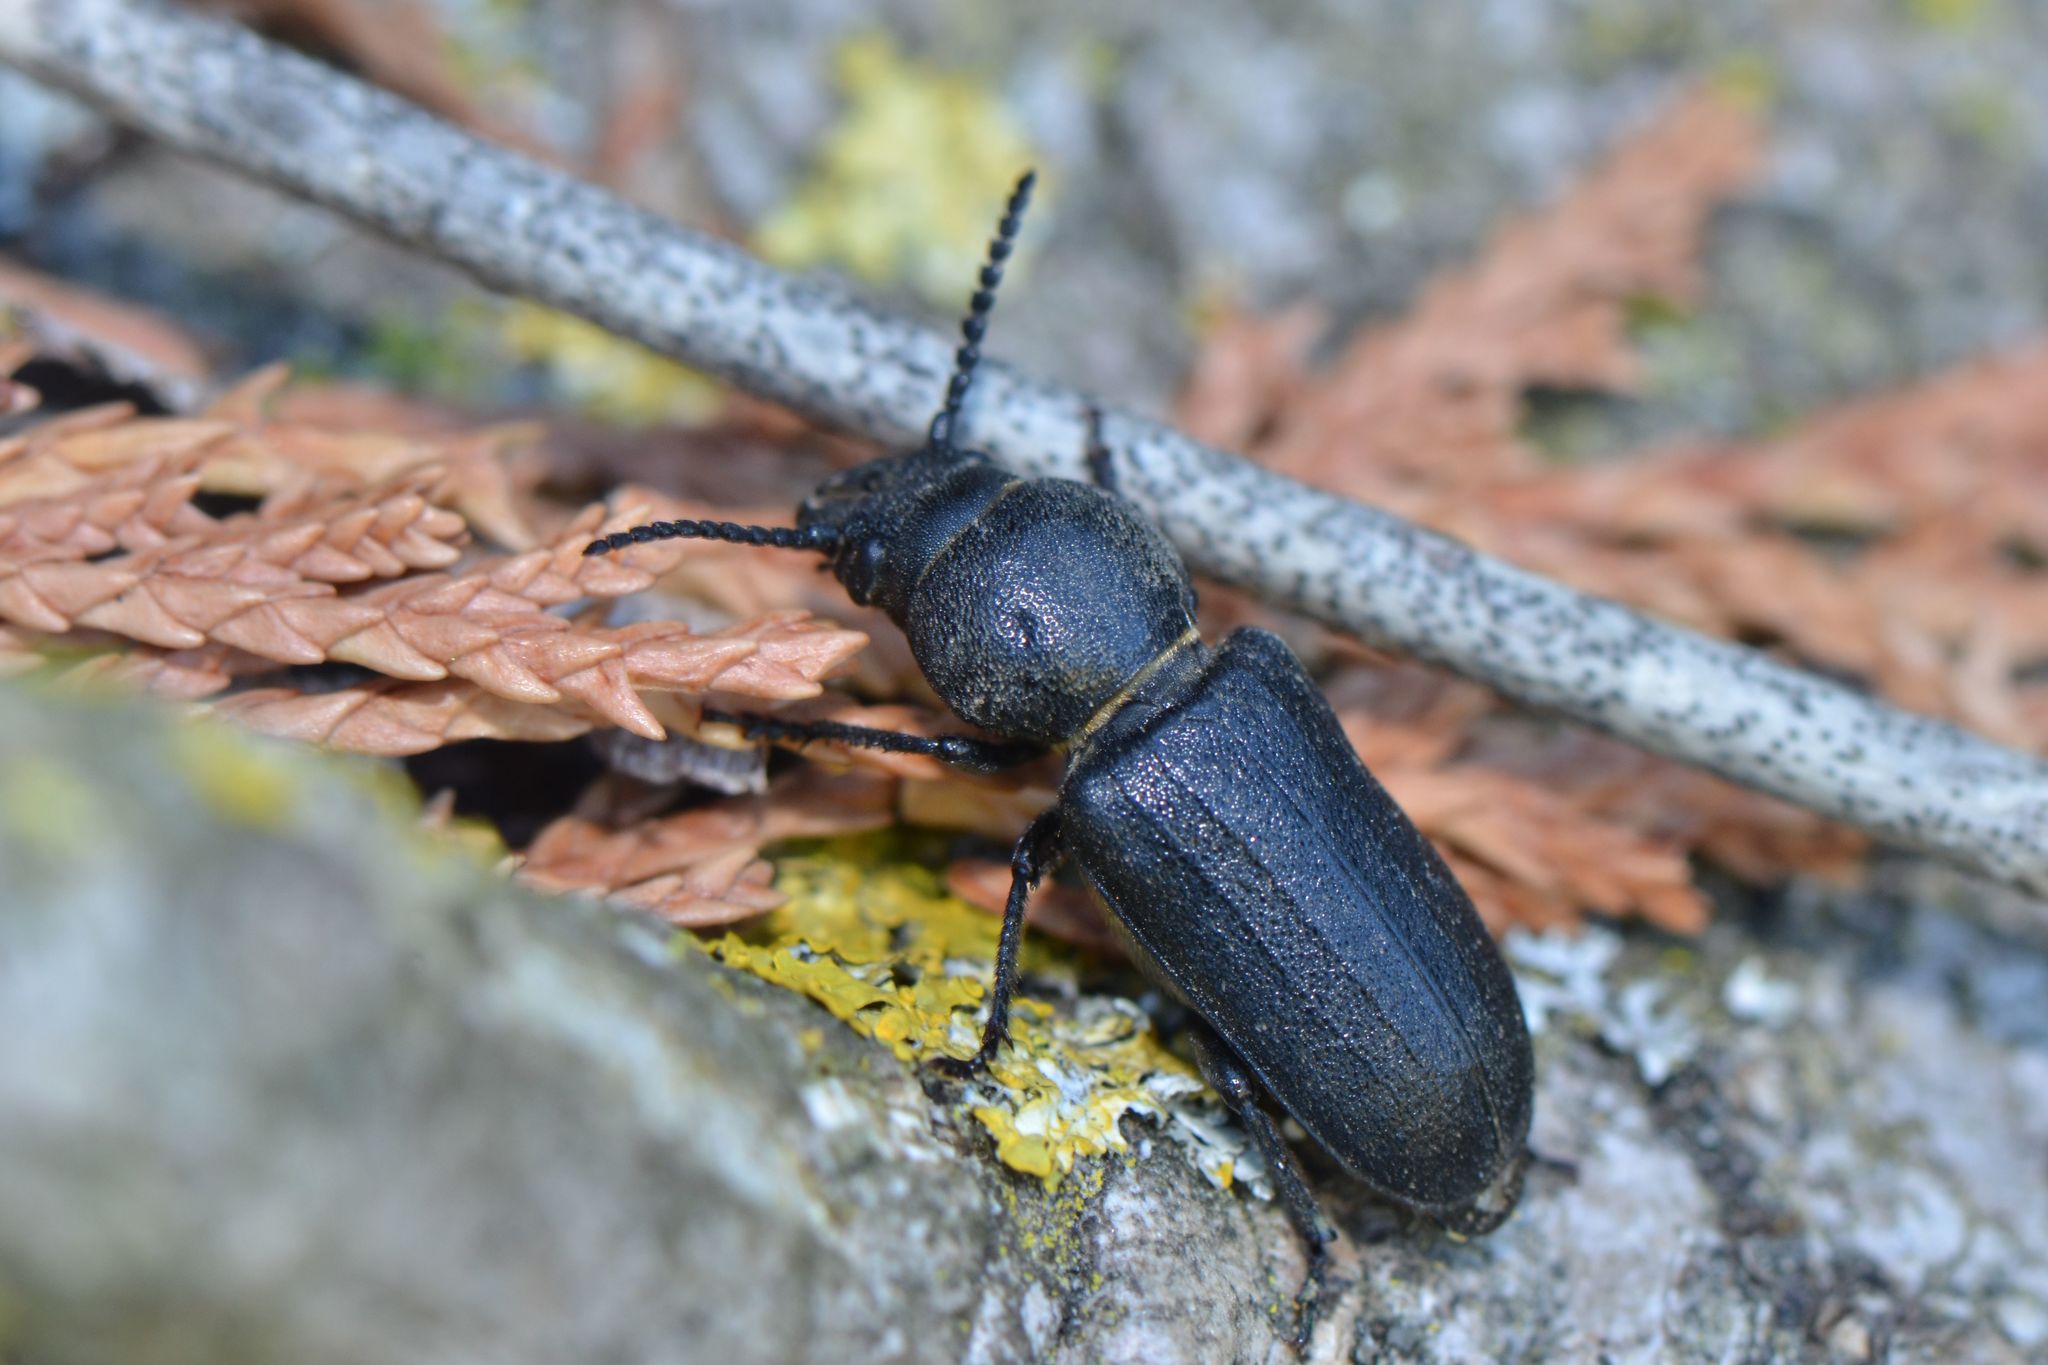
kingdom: Animalia
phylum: Arthropoda
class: Insecta
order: Coleoptera
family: Cerambycidae
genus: Spondylis
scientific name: Spondylis buprestoides
